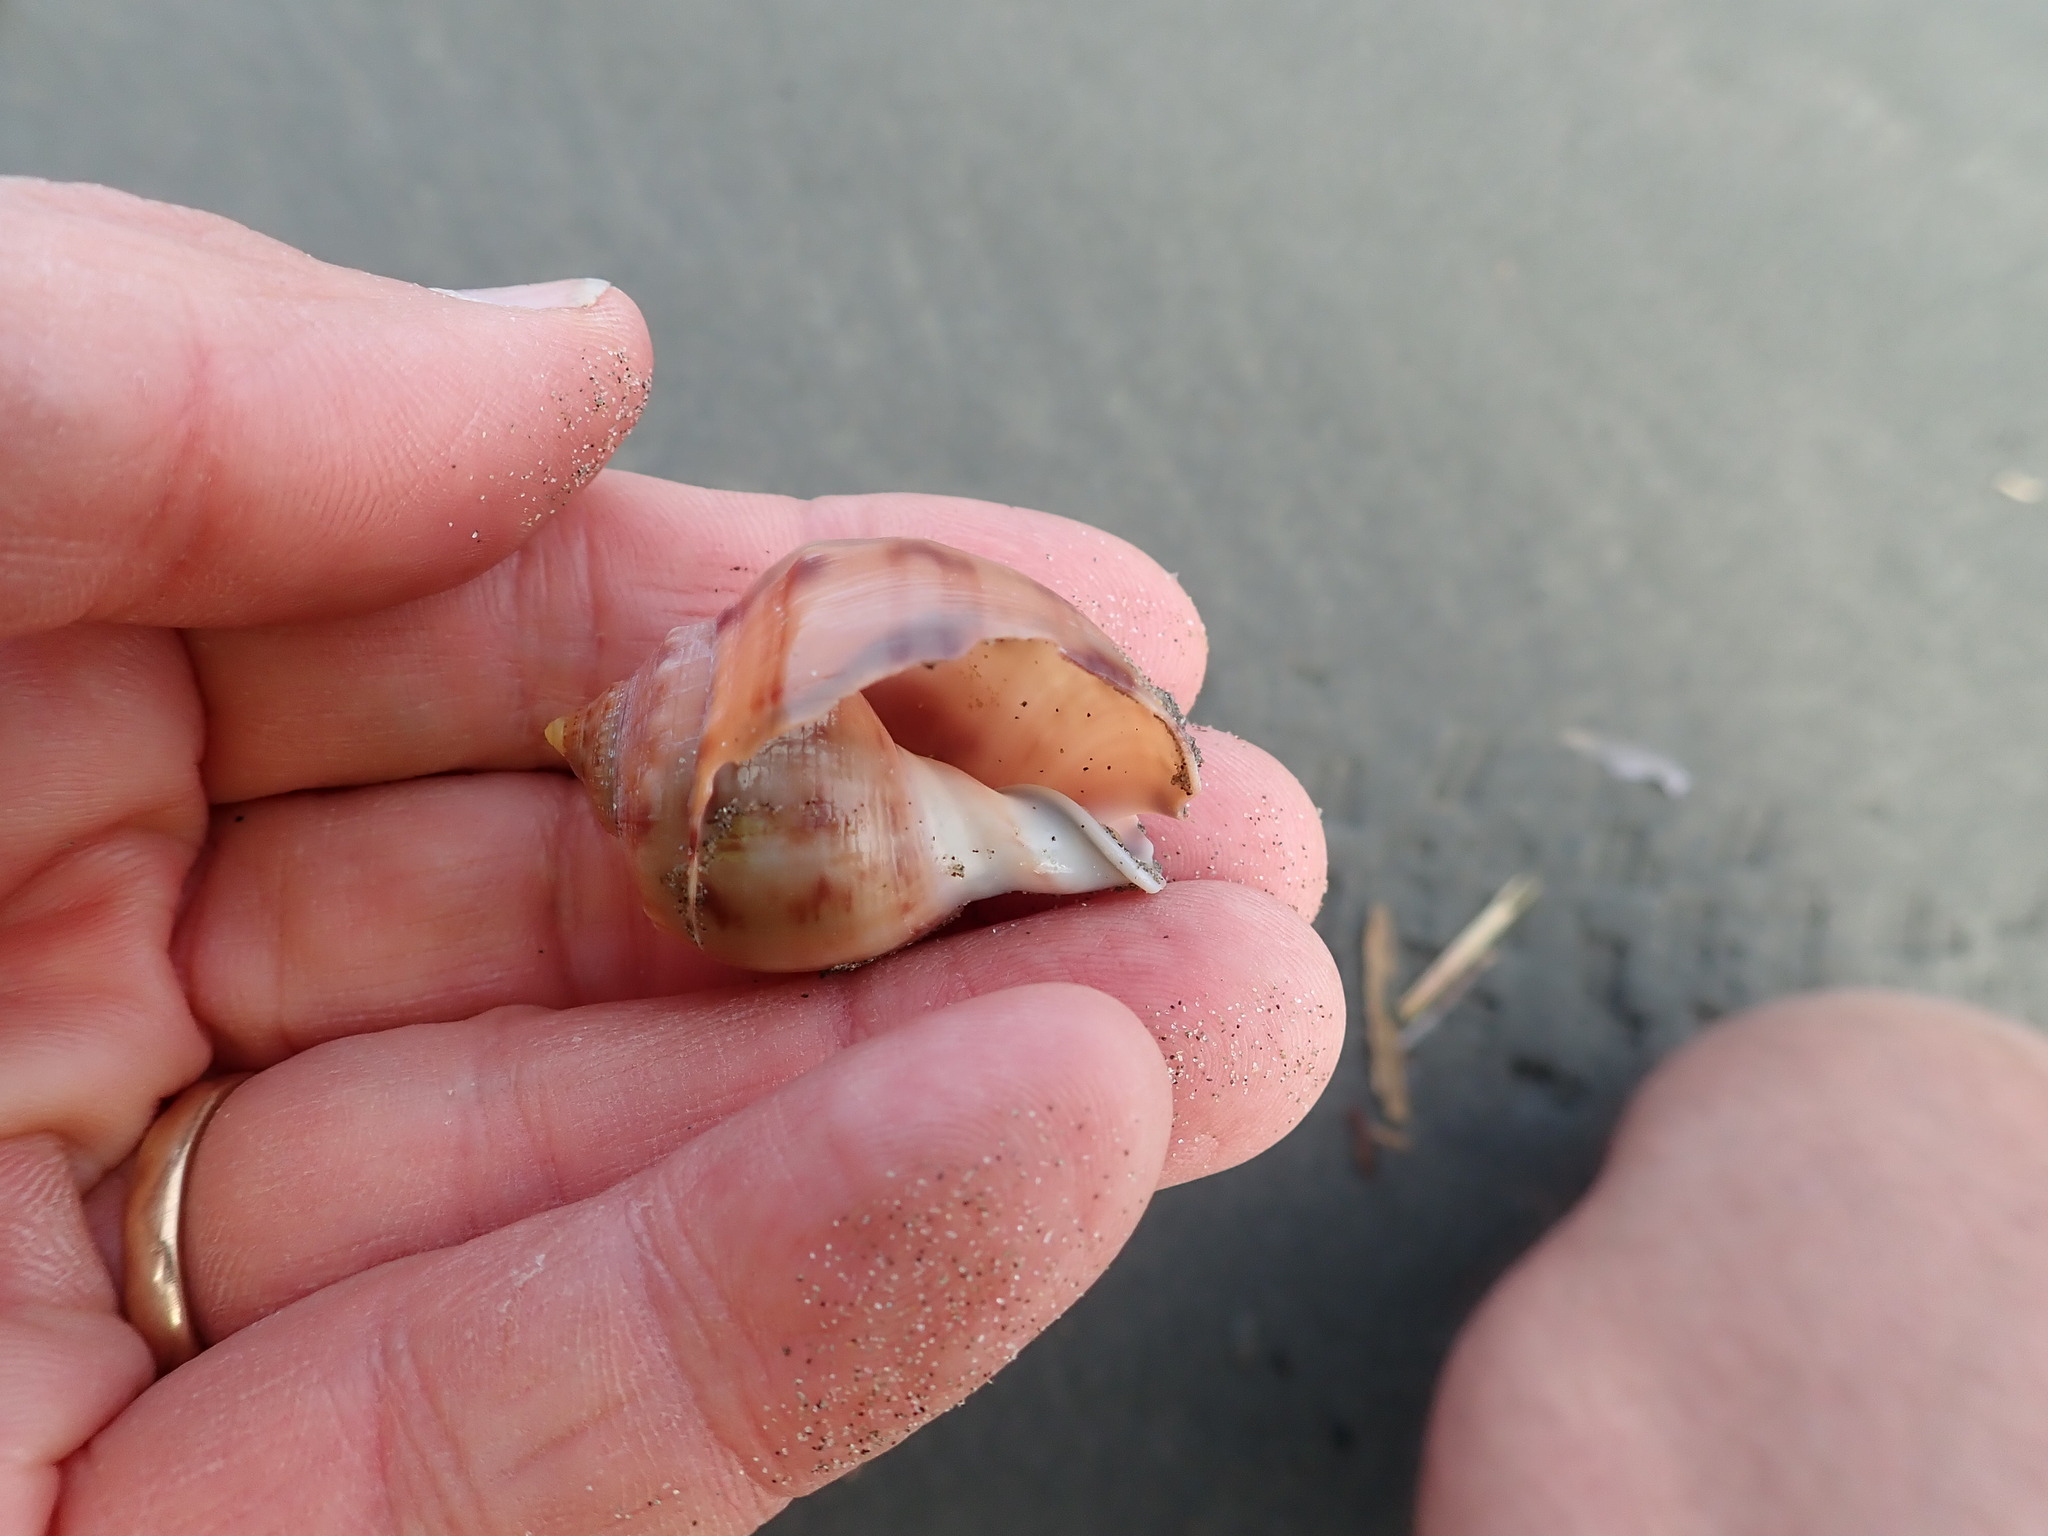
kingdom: Animalia
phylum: Mollusca
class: Gastropoda
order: Littorinimorpha
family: Cassidae
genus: Semicassis
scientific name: Semicassis pyrum
